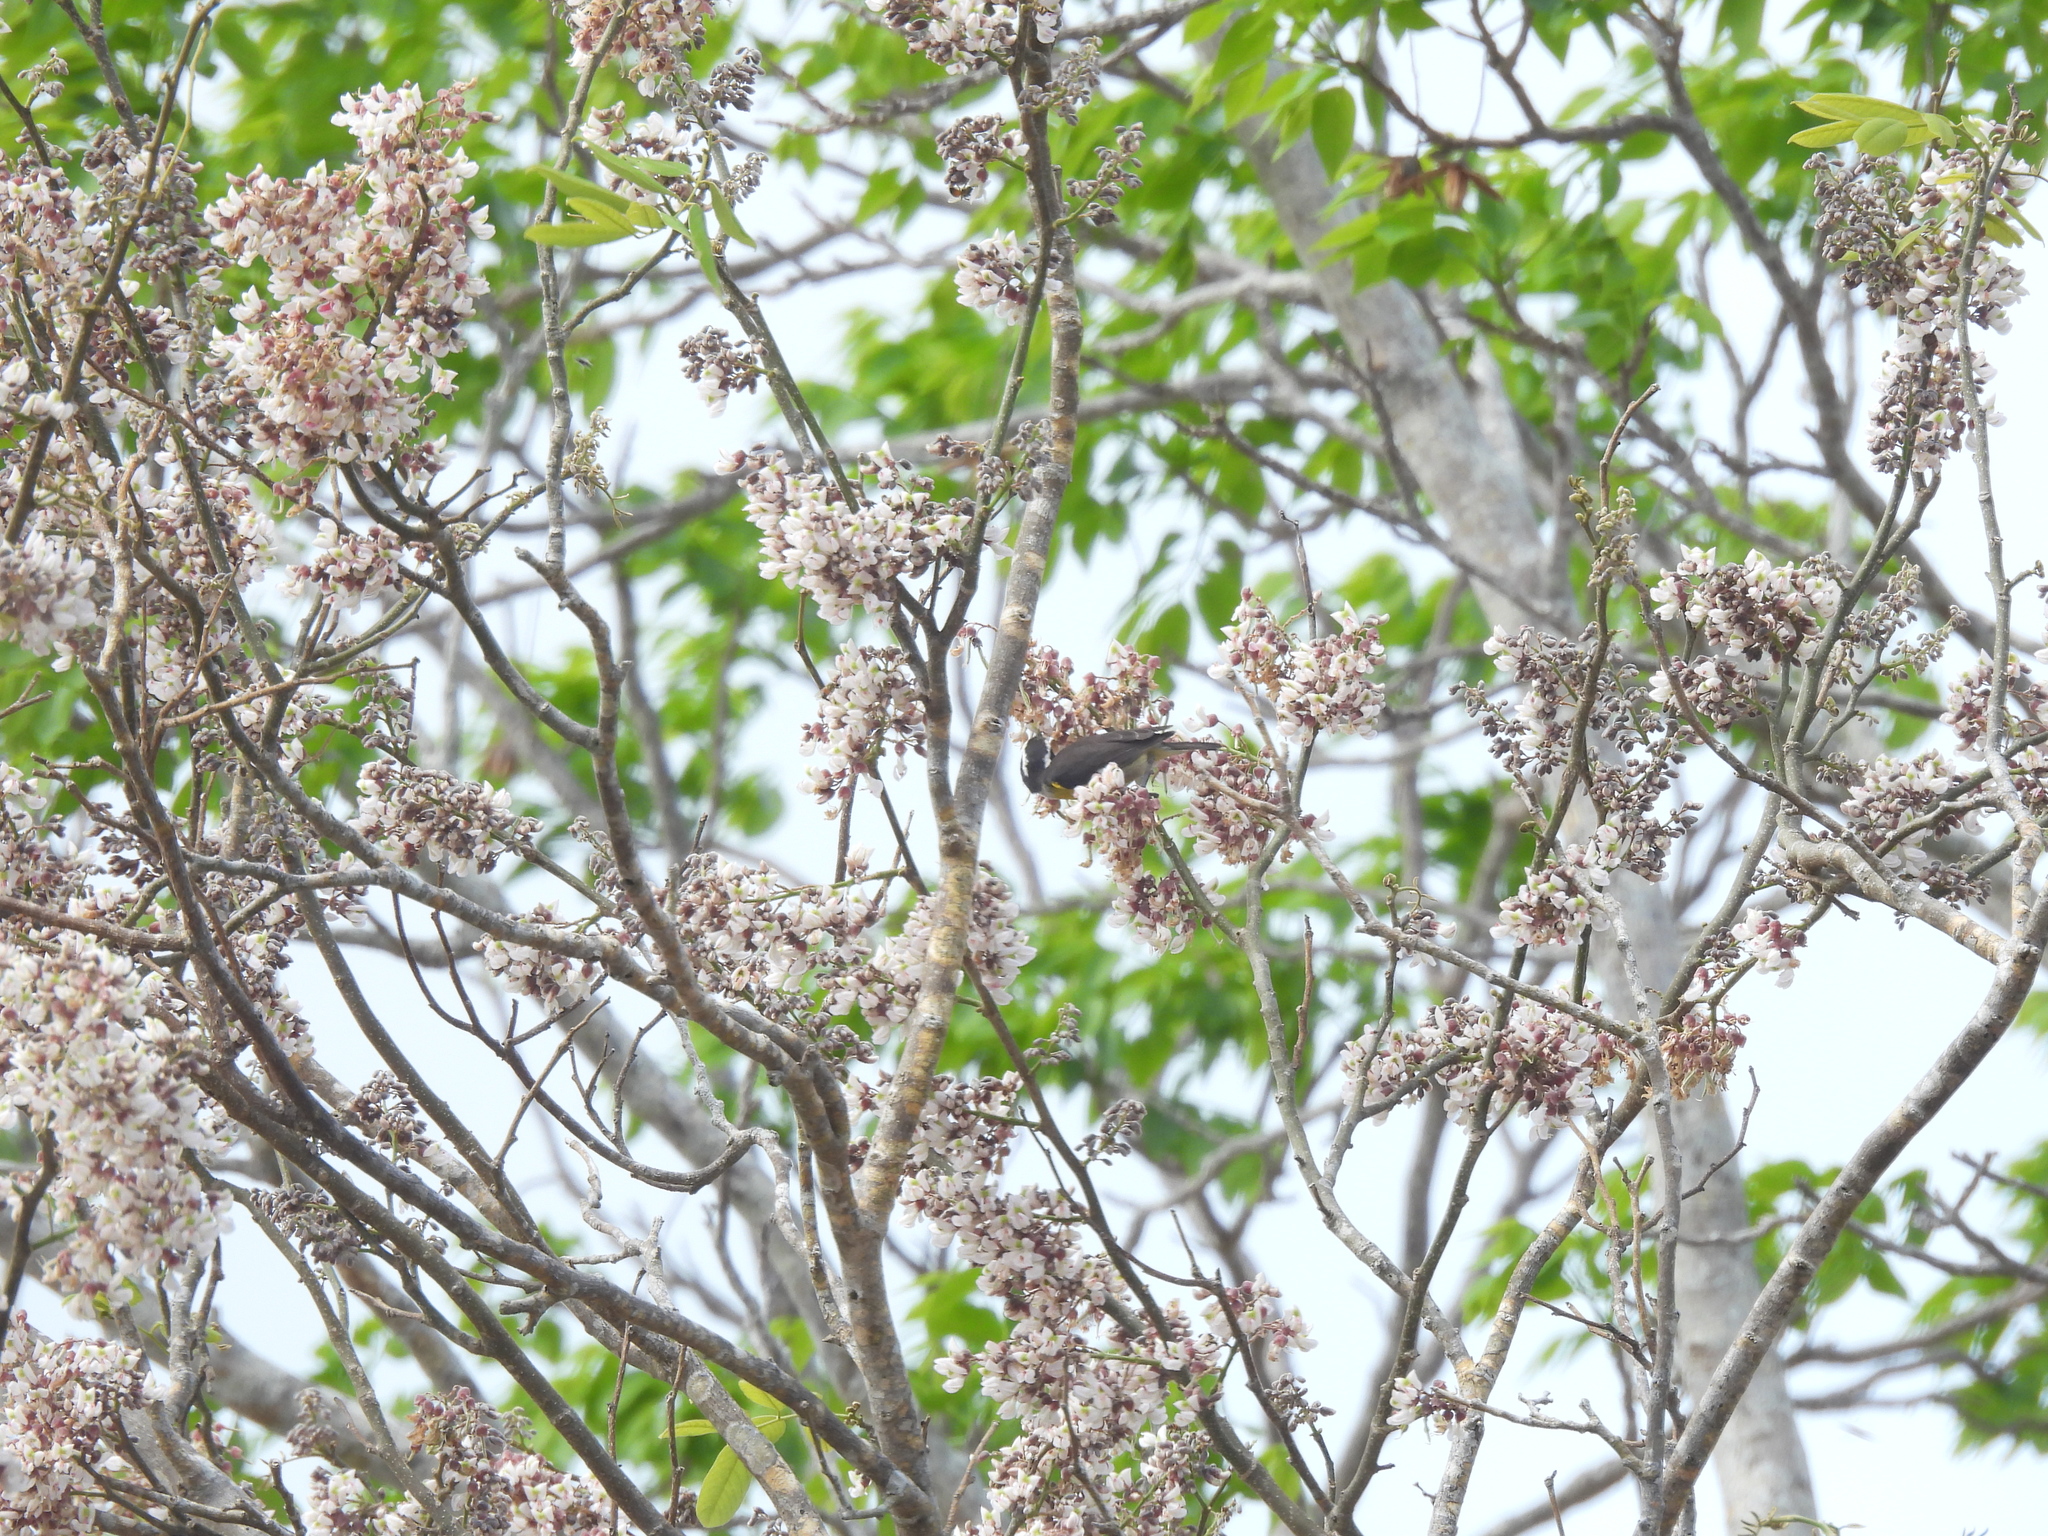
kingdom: Animalia
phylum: Chordata
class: Aves
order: Passeriformes
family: Thraupidae
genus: Coereba
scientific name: Coereba flaveola
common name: Bananaquit
